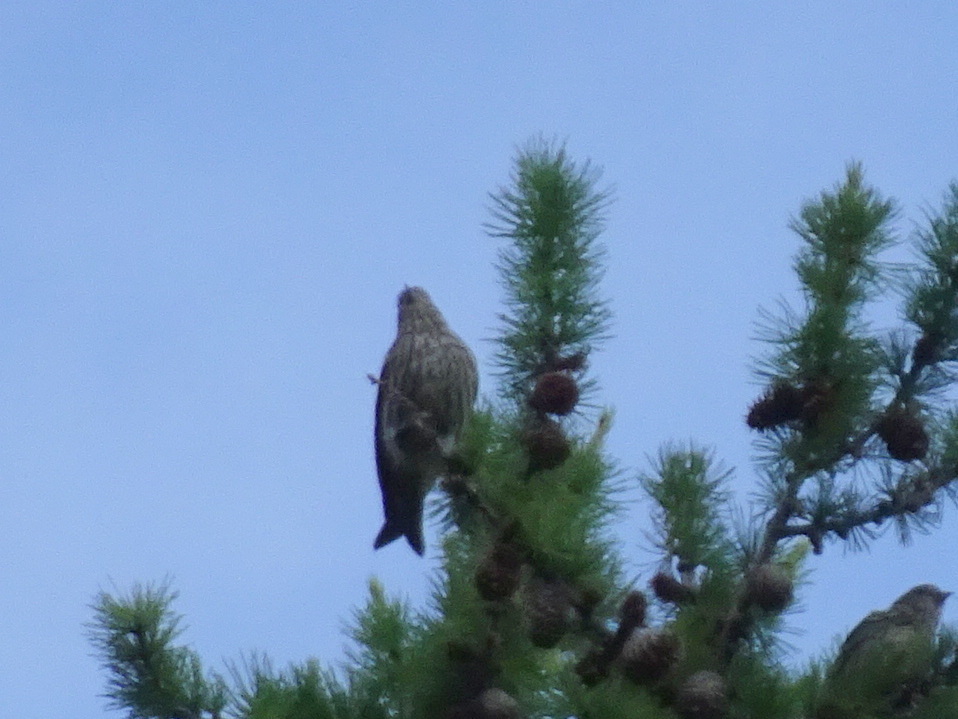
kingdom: Animalia
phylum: Chordata
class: Aves
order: Passeriformes
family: Fringillidae
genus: Spinus
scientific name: Spinus pinus
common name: Pine siskin
